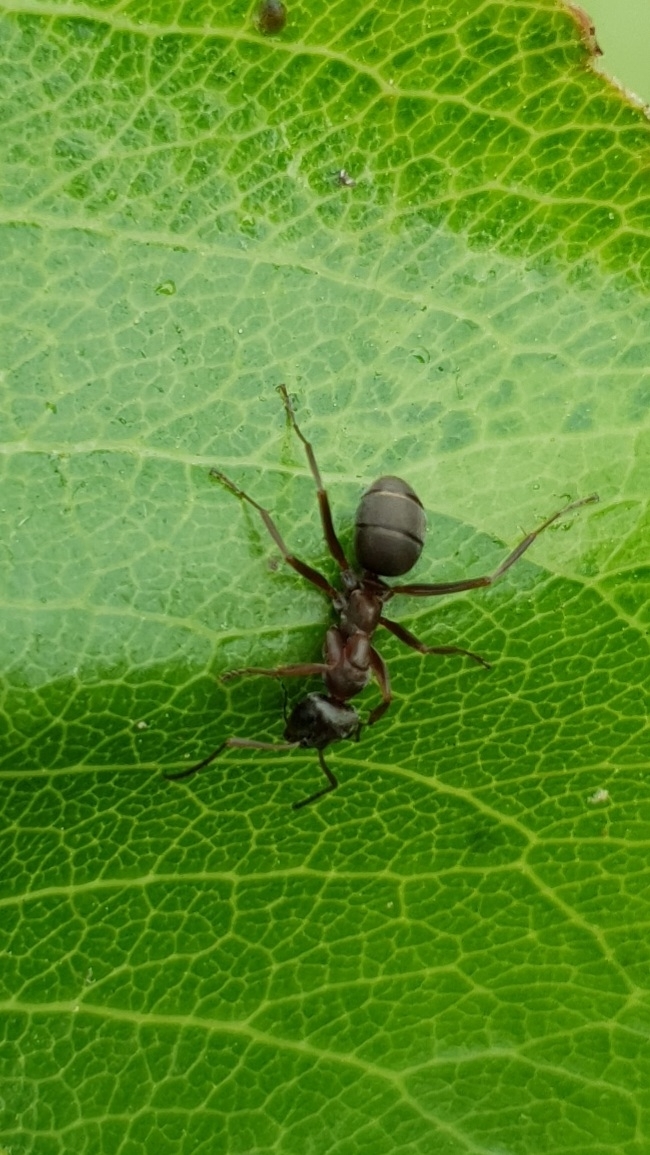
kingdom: Animalia
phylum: Arthropoda
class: Insecta
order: Hymenoptera
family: Formicidae
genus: Formica
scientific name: Formica cunicularia
